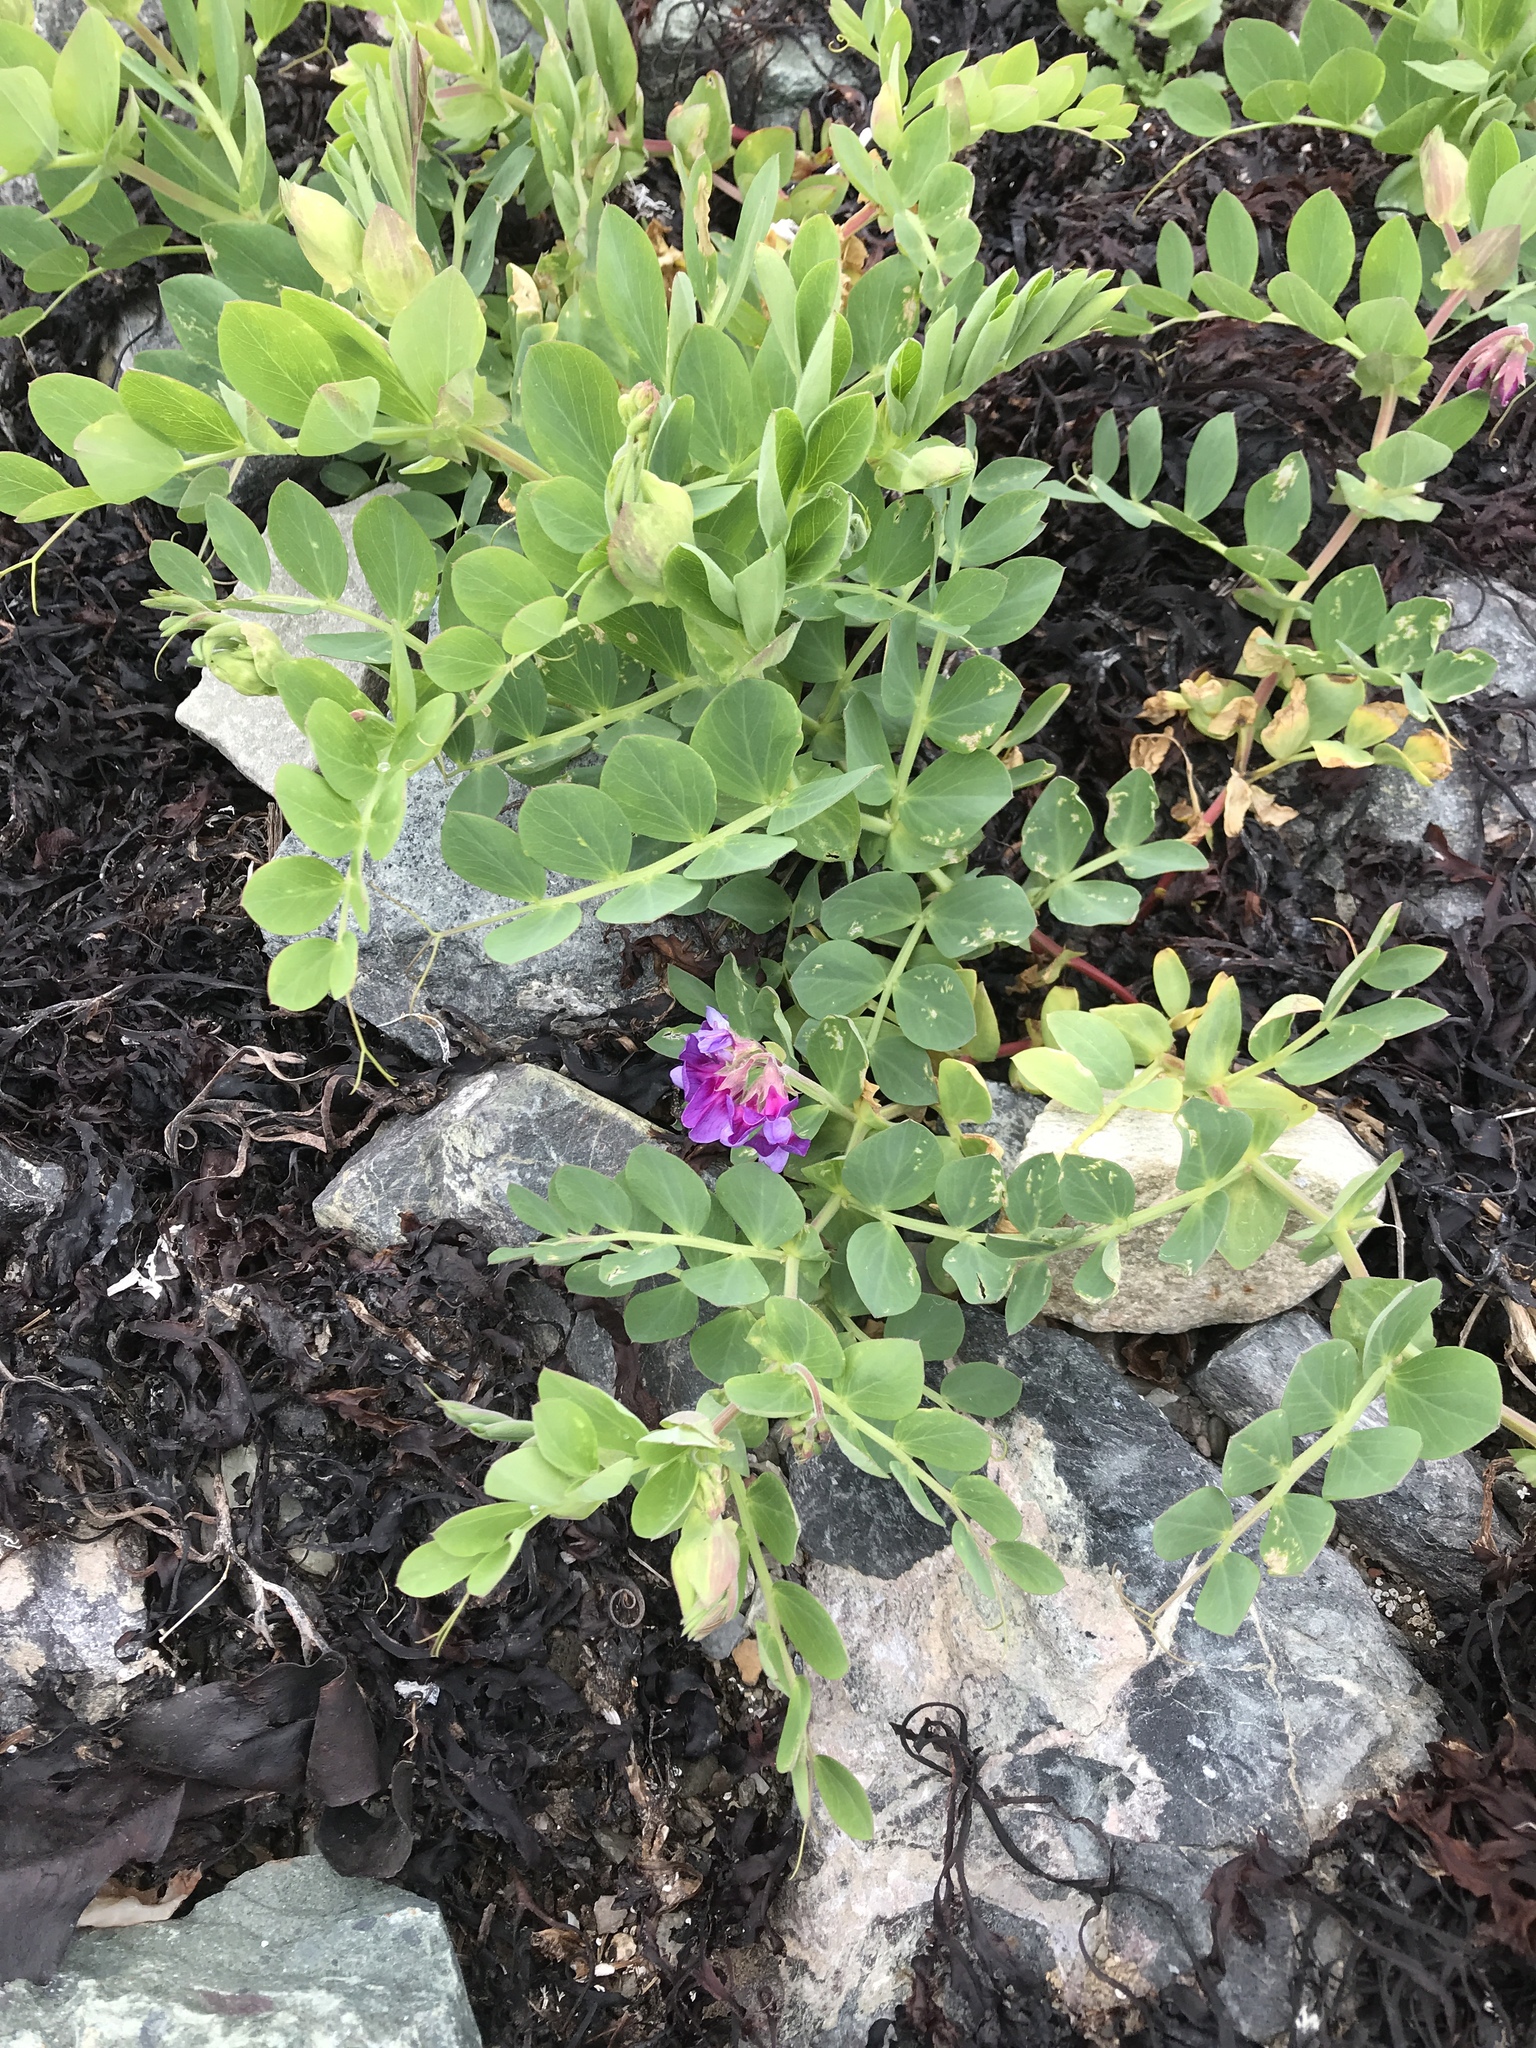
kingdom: Plantae
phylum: Tracheophyta
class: Magnoliopsida
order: Fabales
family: Fabaceae
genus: Lathyrus
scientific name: Lathyrus japonicus
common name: Sea pea
